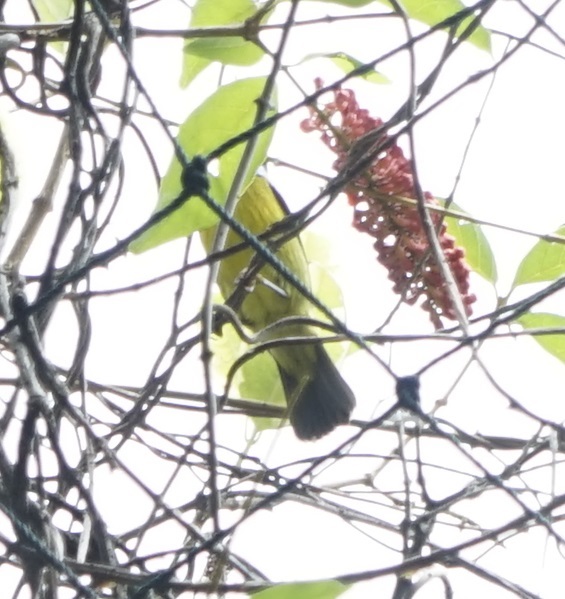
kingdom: Animalia
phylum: Chordata
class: Aves
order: Passeriformes
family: Nectariniidae
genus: Anthreptes
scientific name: Anthreptes malacensis
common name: Brown-throated sunbird
